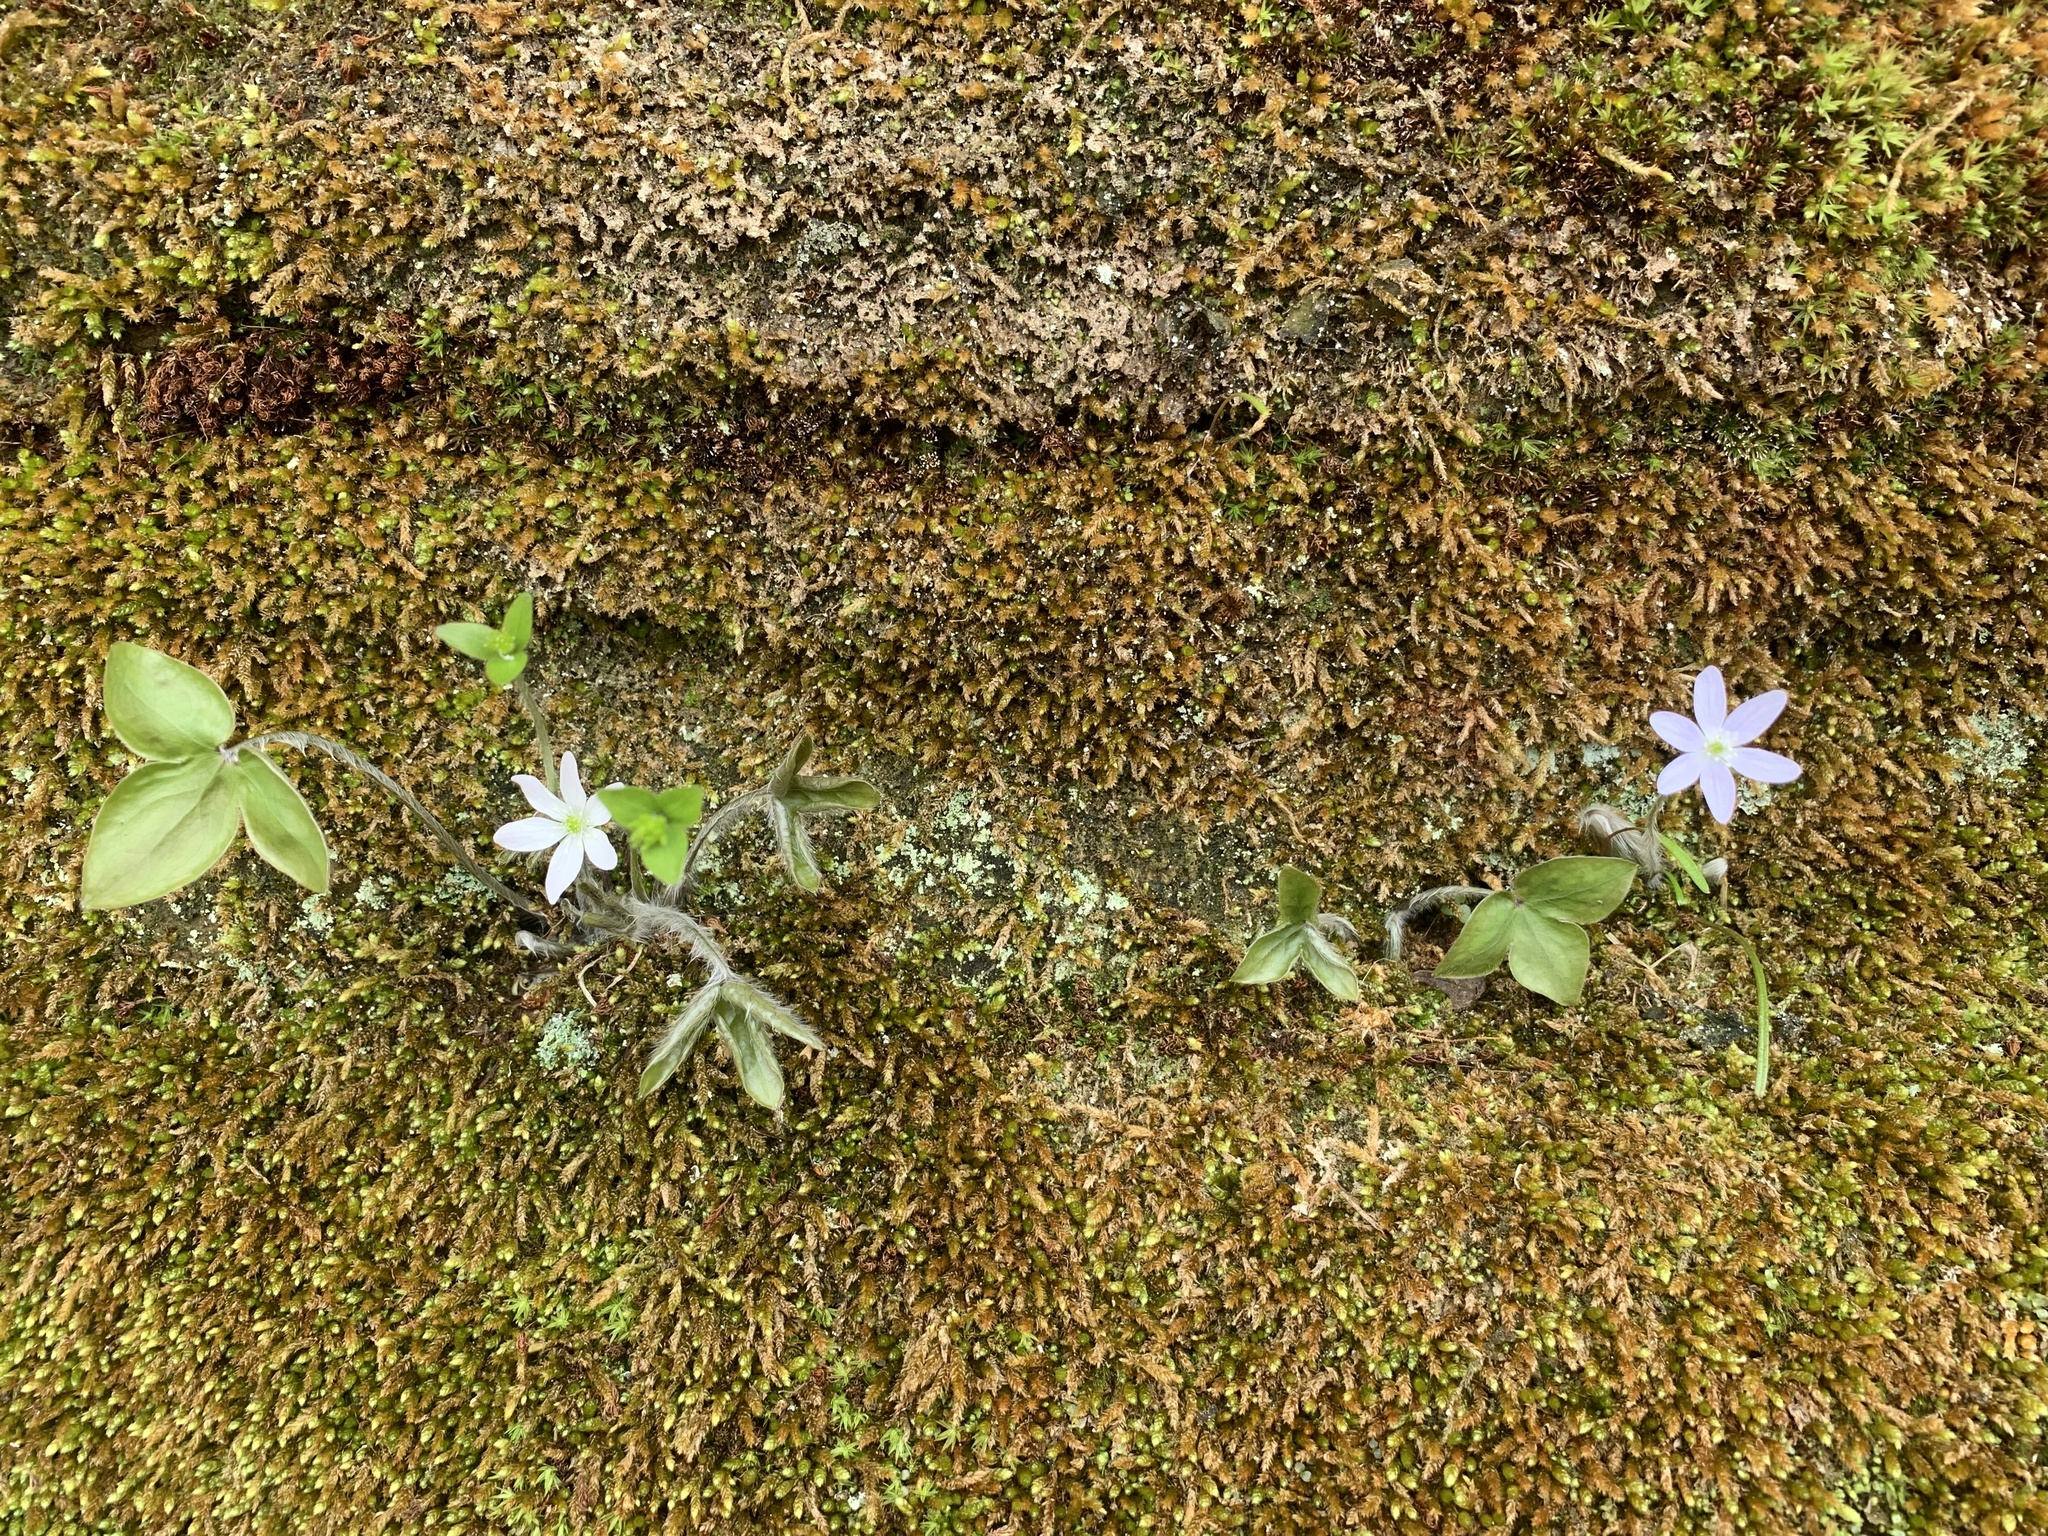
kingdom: Plantae
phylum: Tracheophyta
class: Magnoliopsida
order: Ranunculales
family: Ranunculaceae
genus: Hepatica
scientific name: Hepatica acutiloba
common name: Sharp-lobed hepatica
